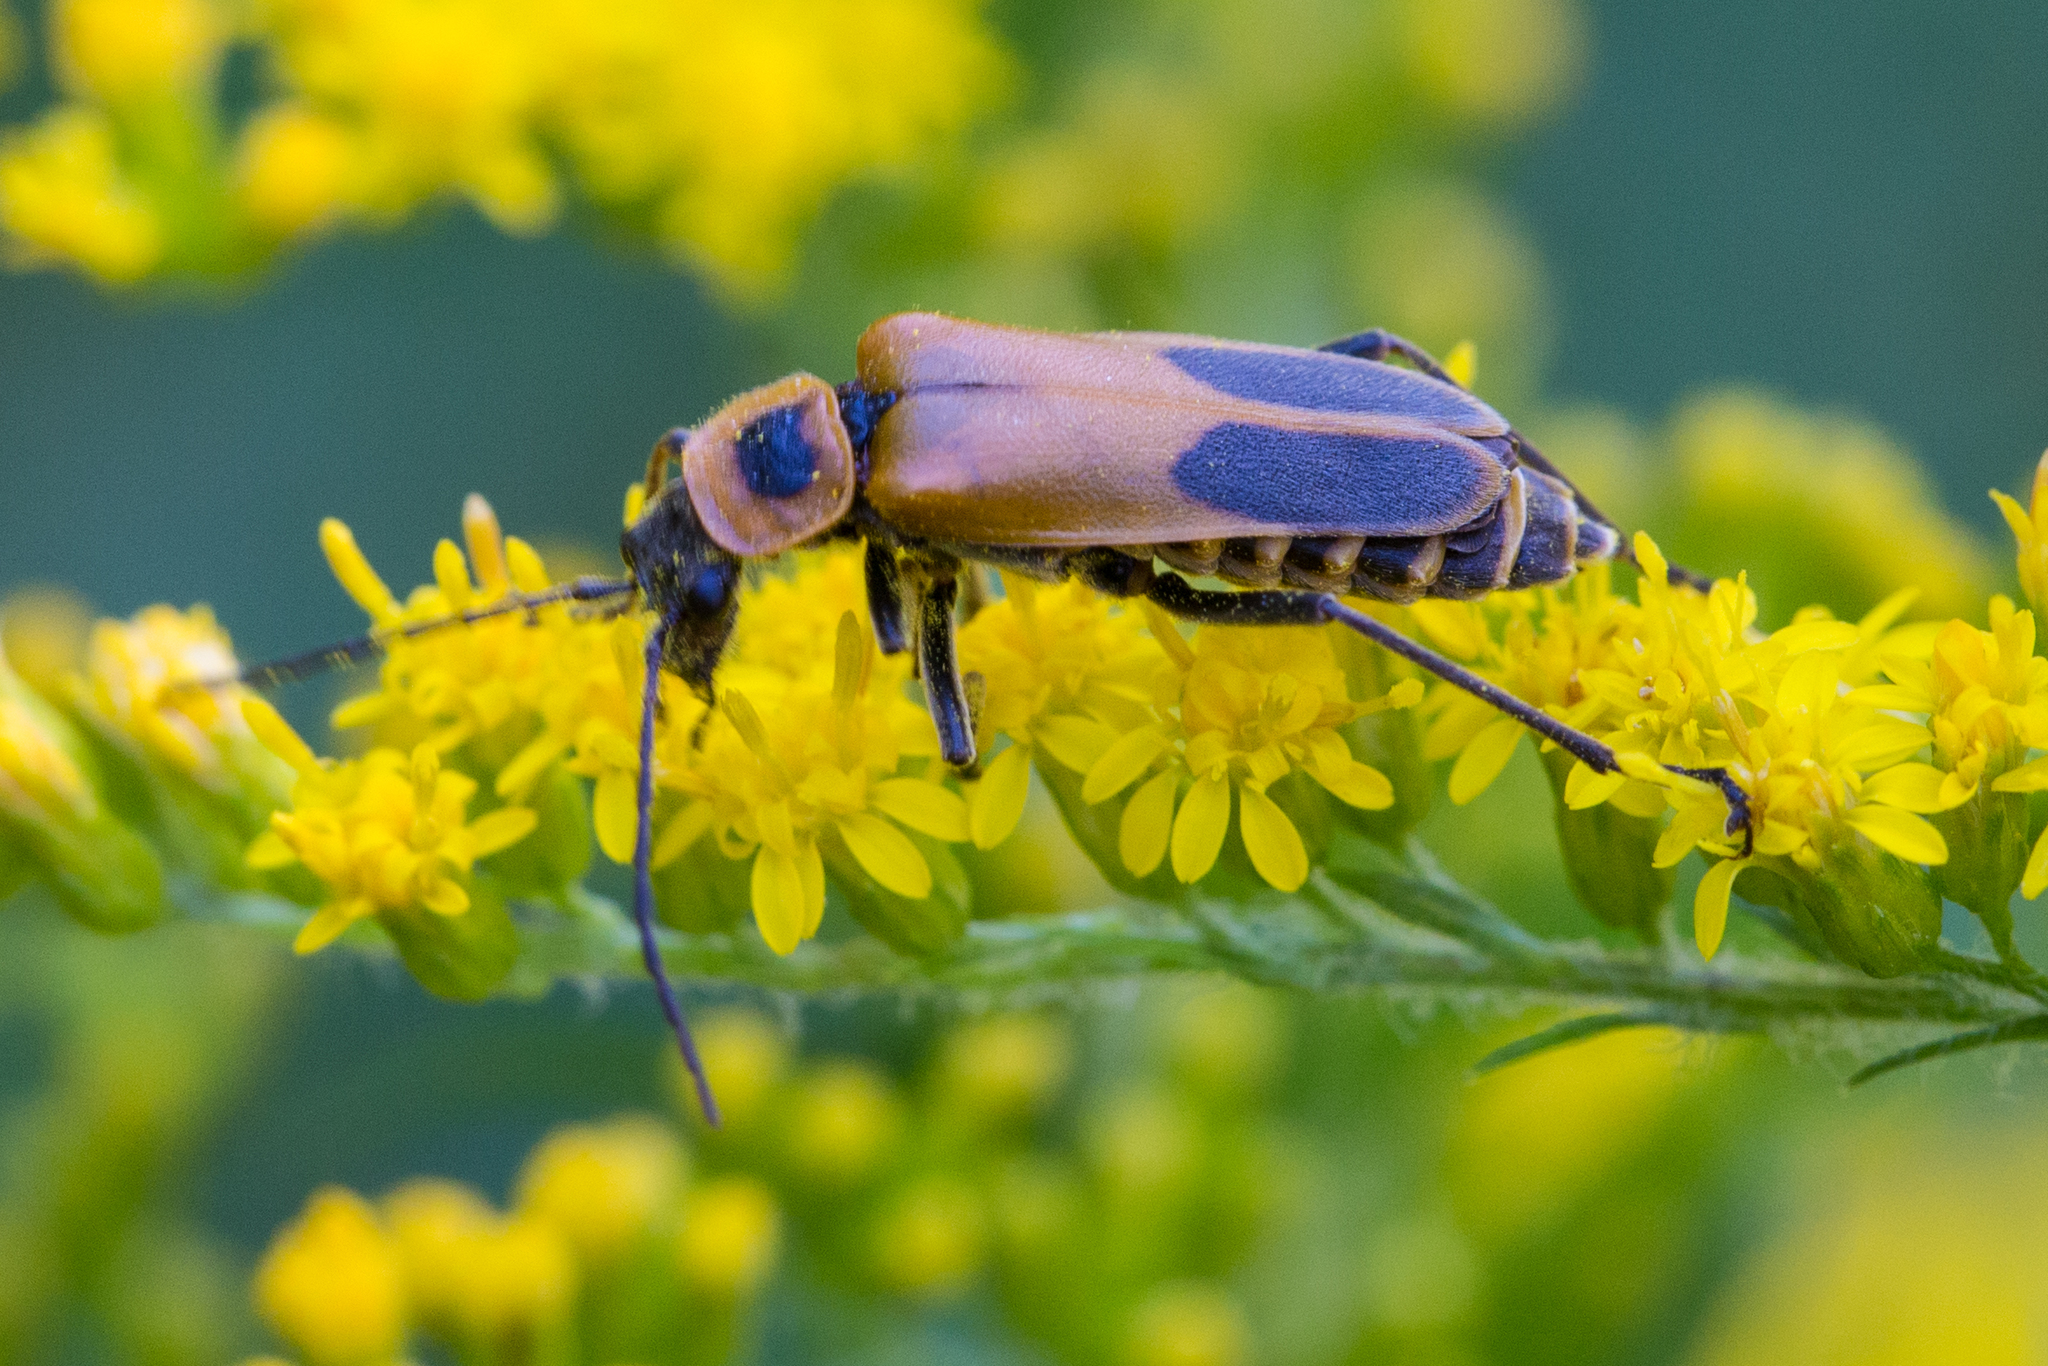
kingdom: Animalia
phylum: Arthropoda
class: Insecta
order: Coleoptera
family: Cantharidae
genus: Chauliognathus
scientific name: Chauliognathus pensylvanicus
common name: Goldenrod soldier beetle
